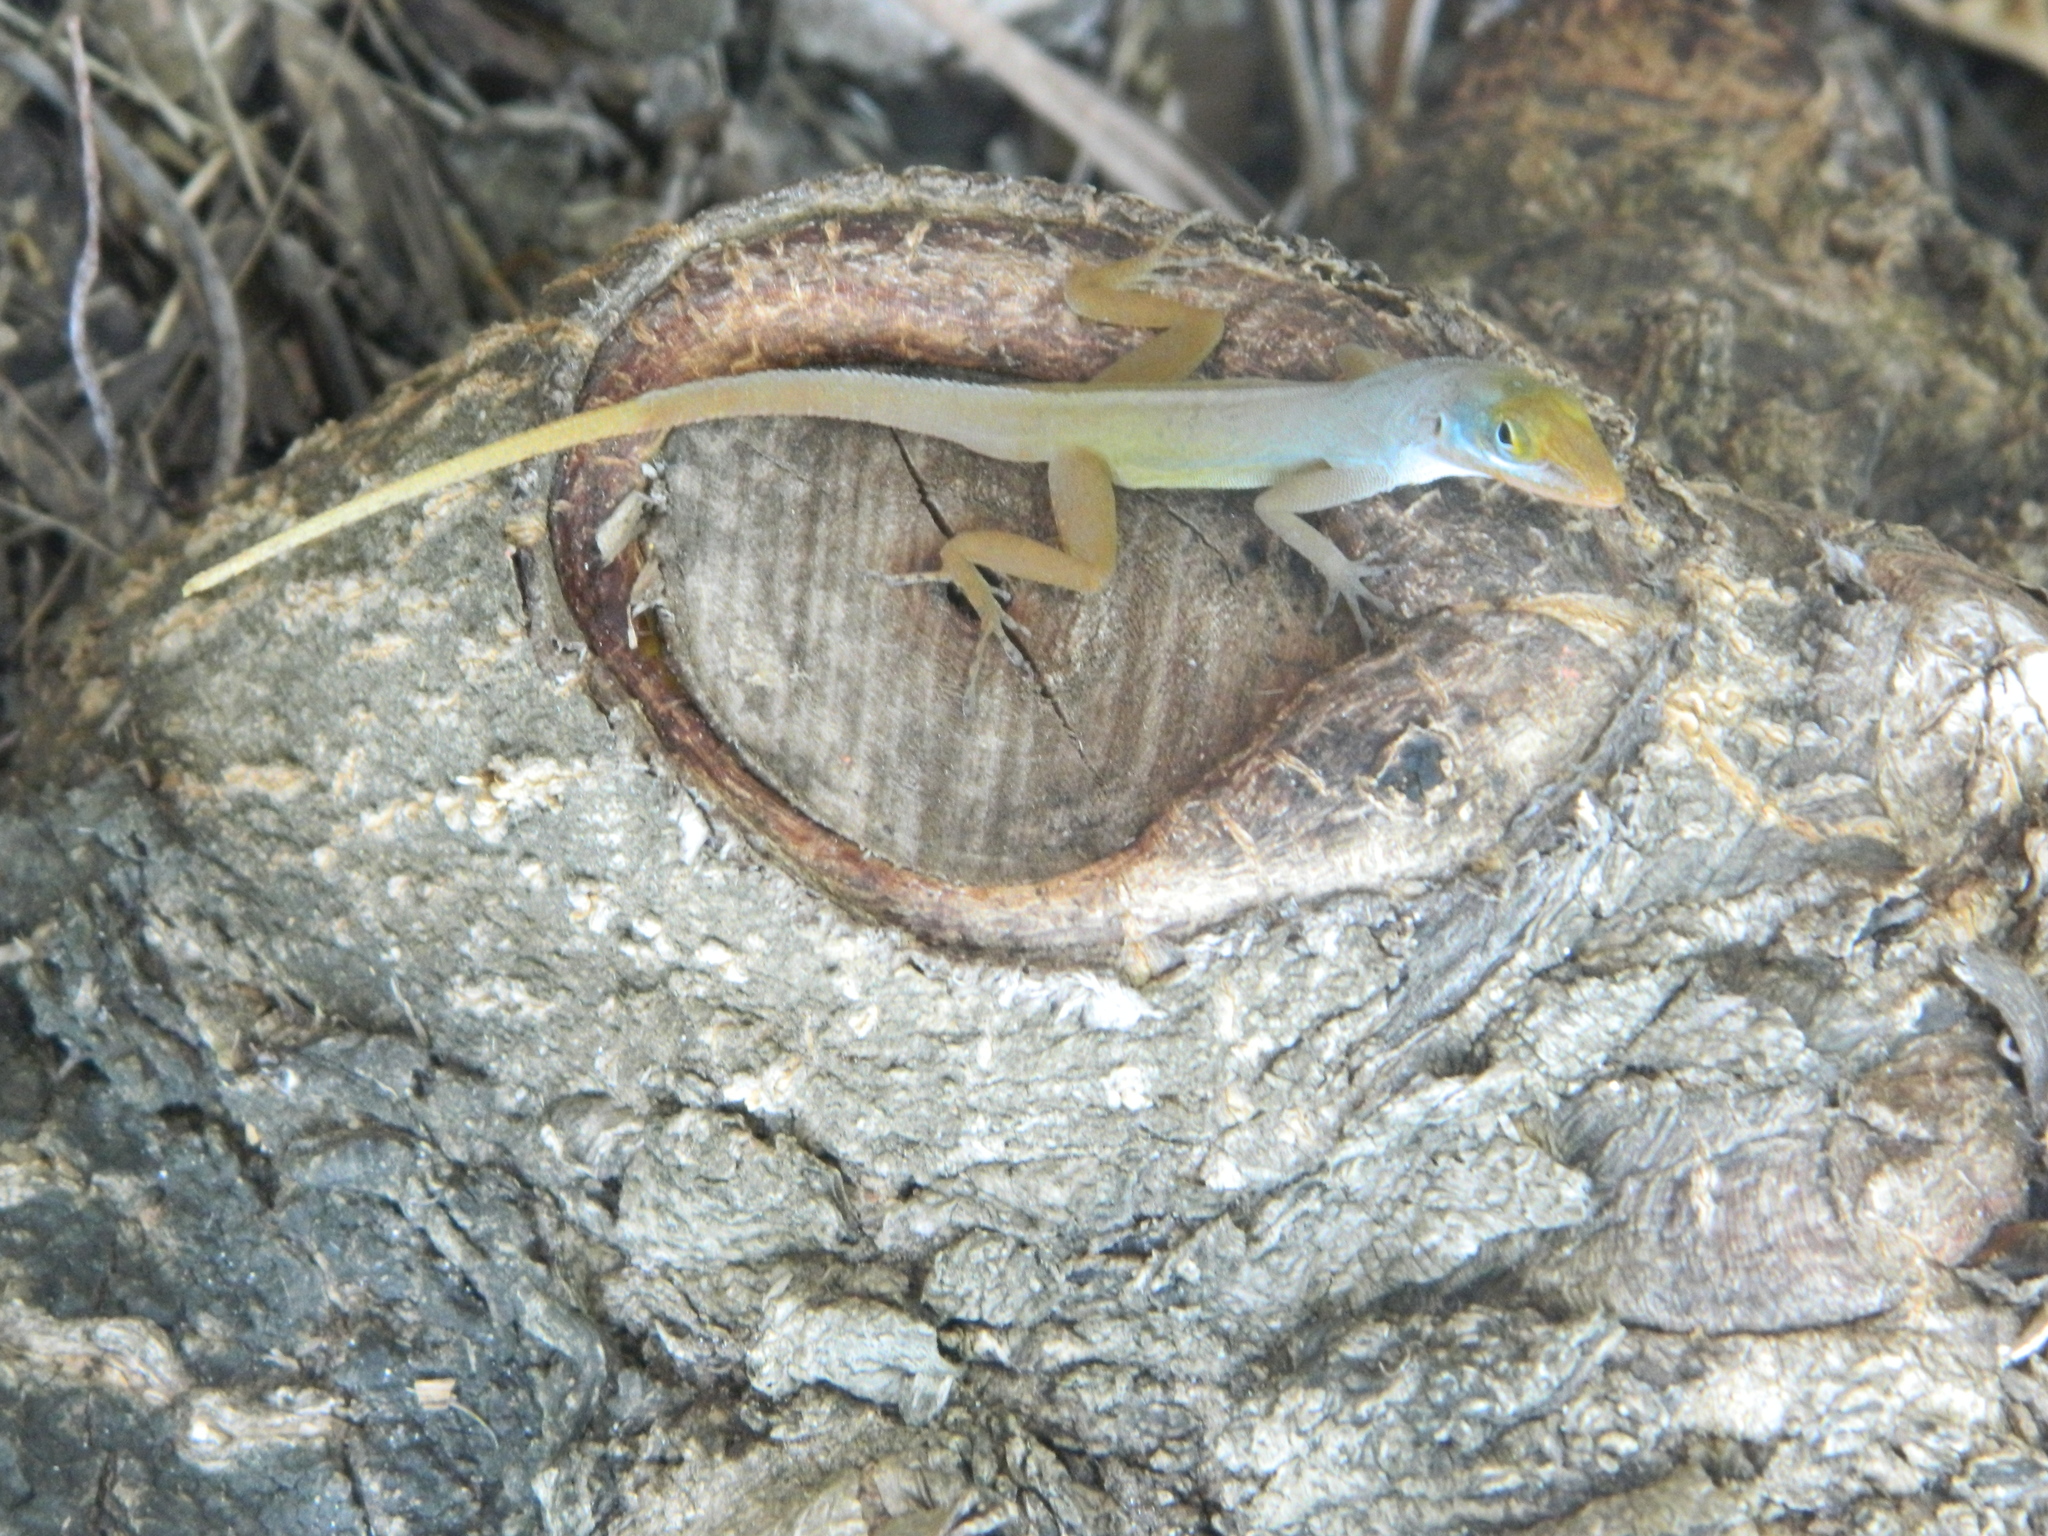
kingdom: Animalia
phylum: Chordata
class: Squamata
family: Dactyloidae
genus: Anolis
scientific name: Anolis wattsii
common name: Antigua bank bush anole
